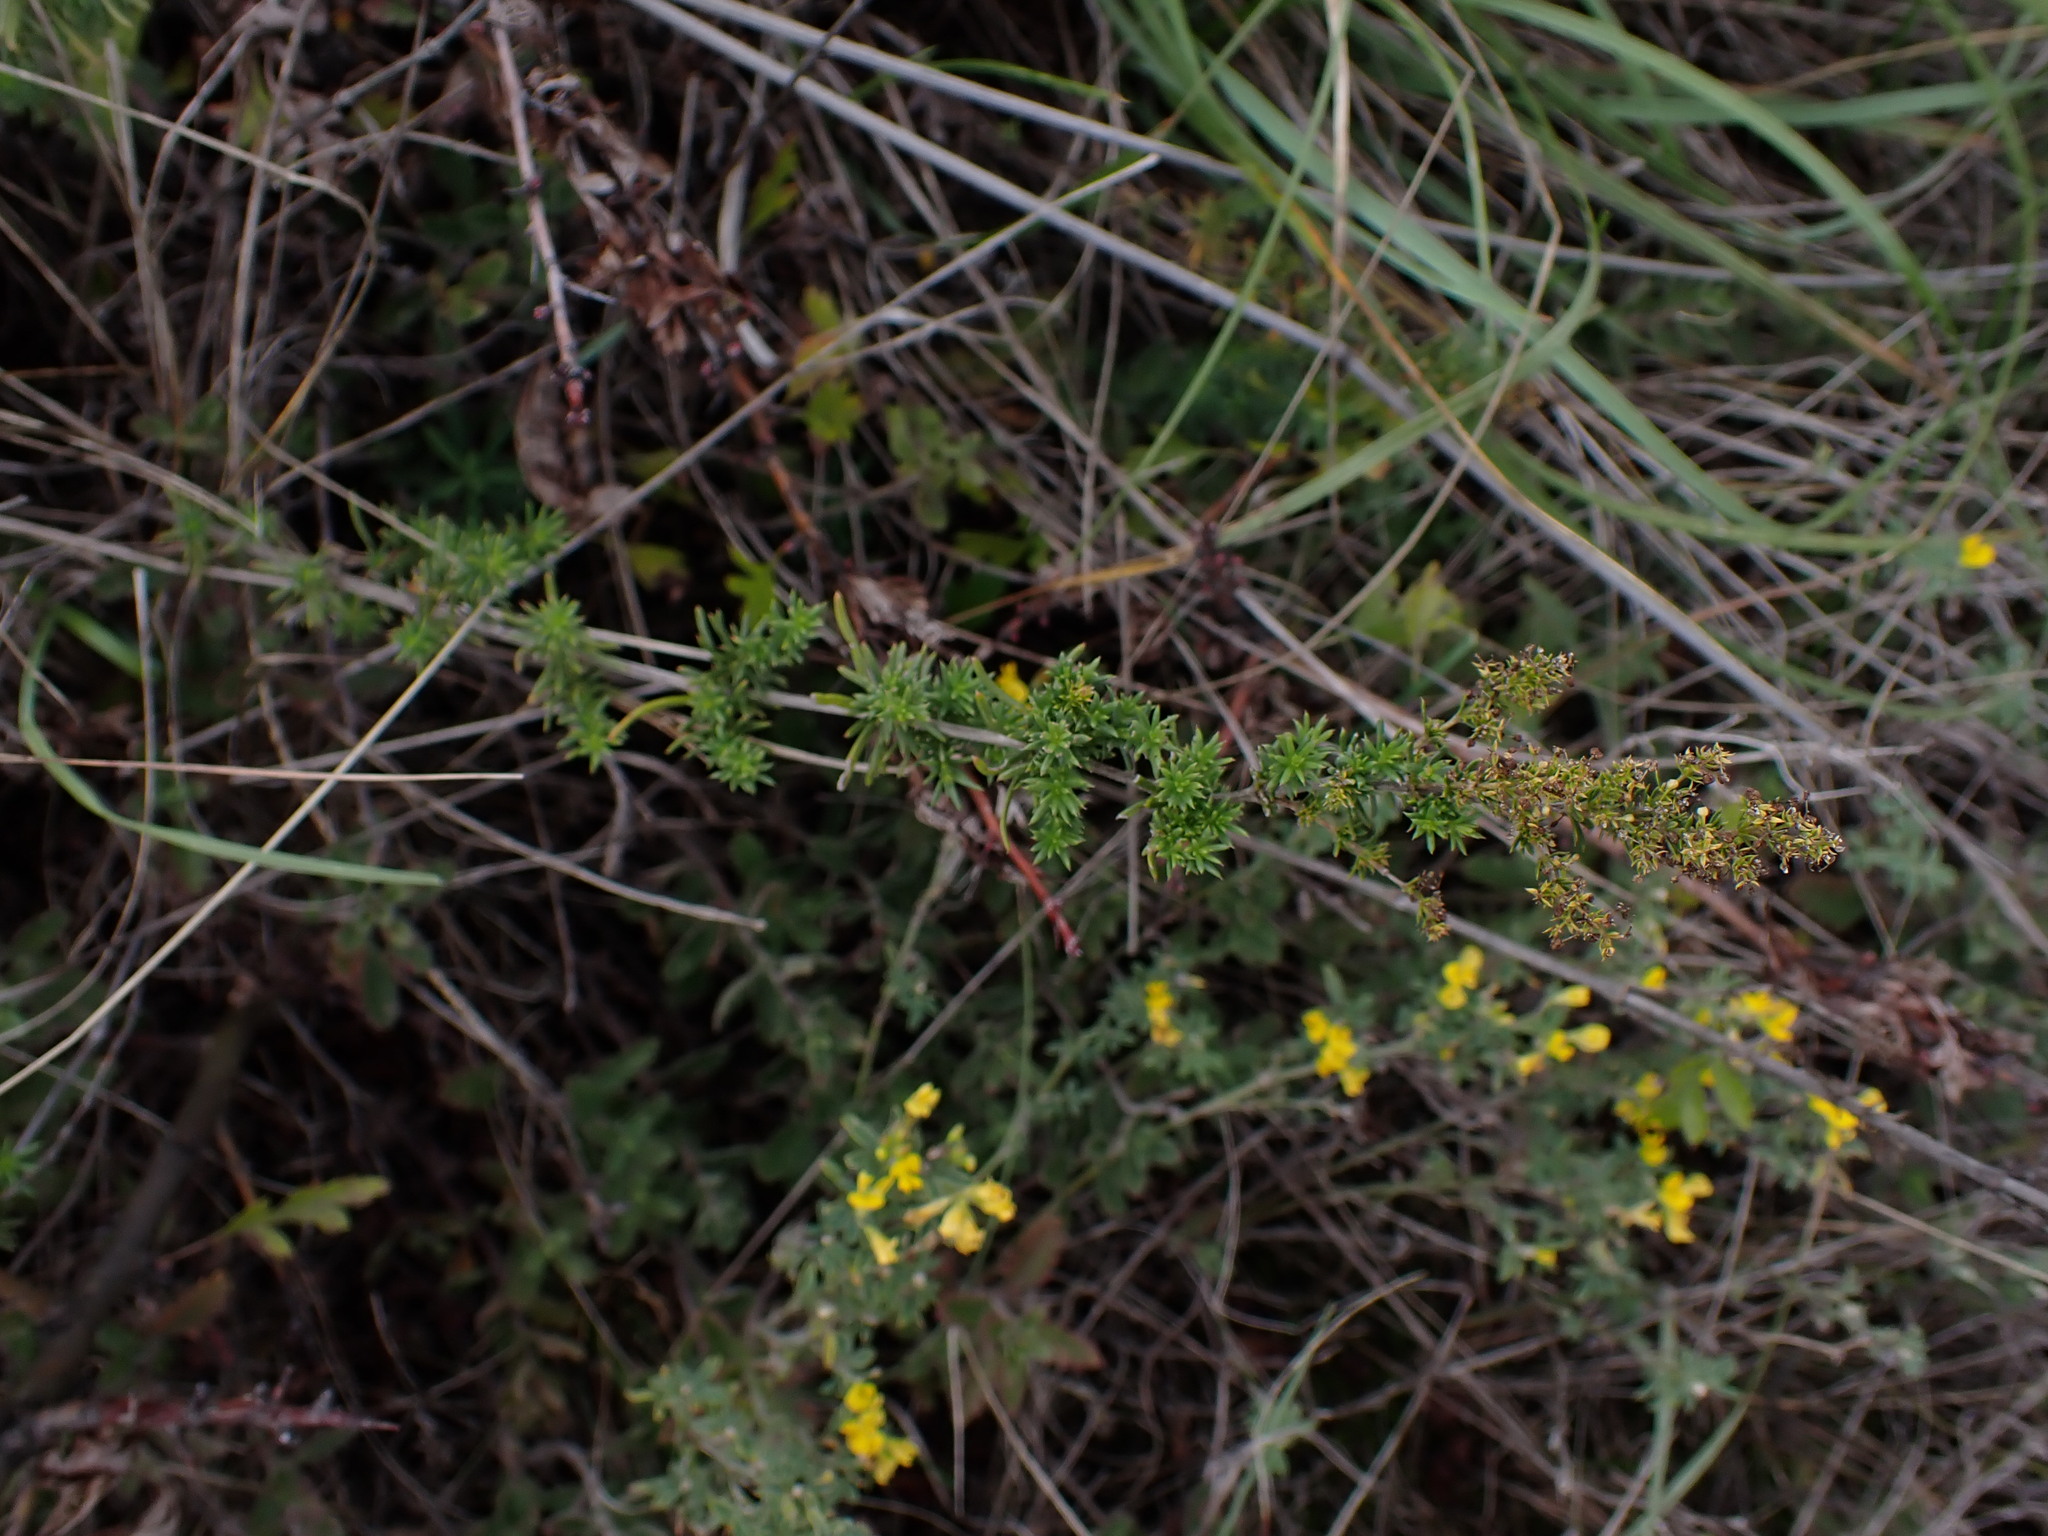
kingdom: Plantae
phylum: Tracheophyta
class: Magnoliopsida
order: Gentianales
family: Rubiaceae
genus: Galium
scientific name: Galium verum
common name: Lady's bedstraw
